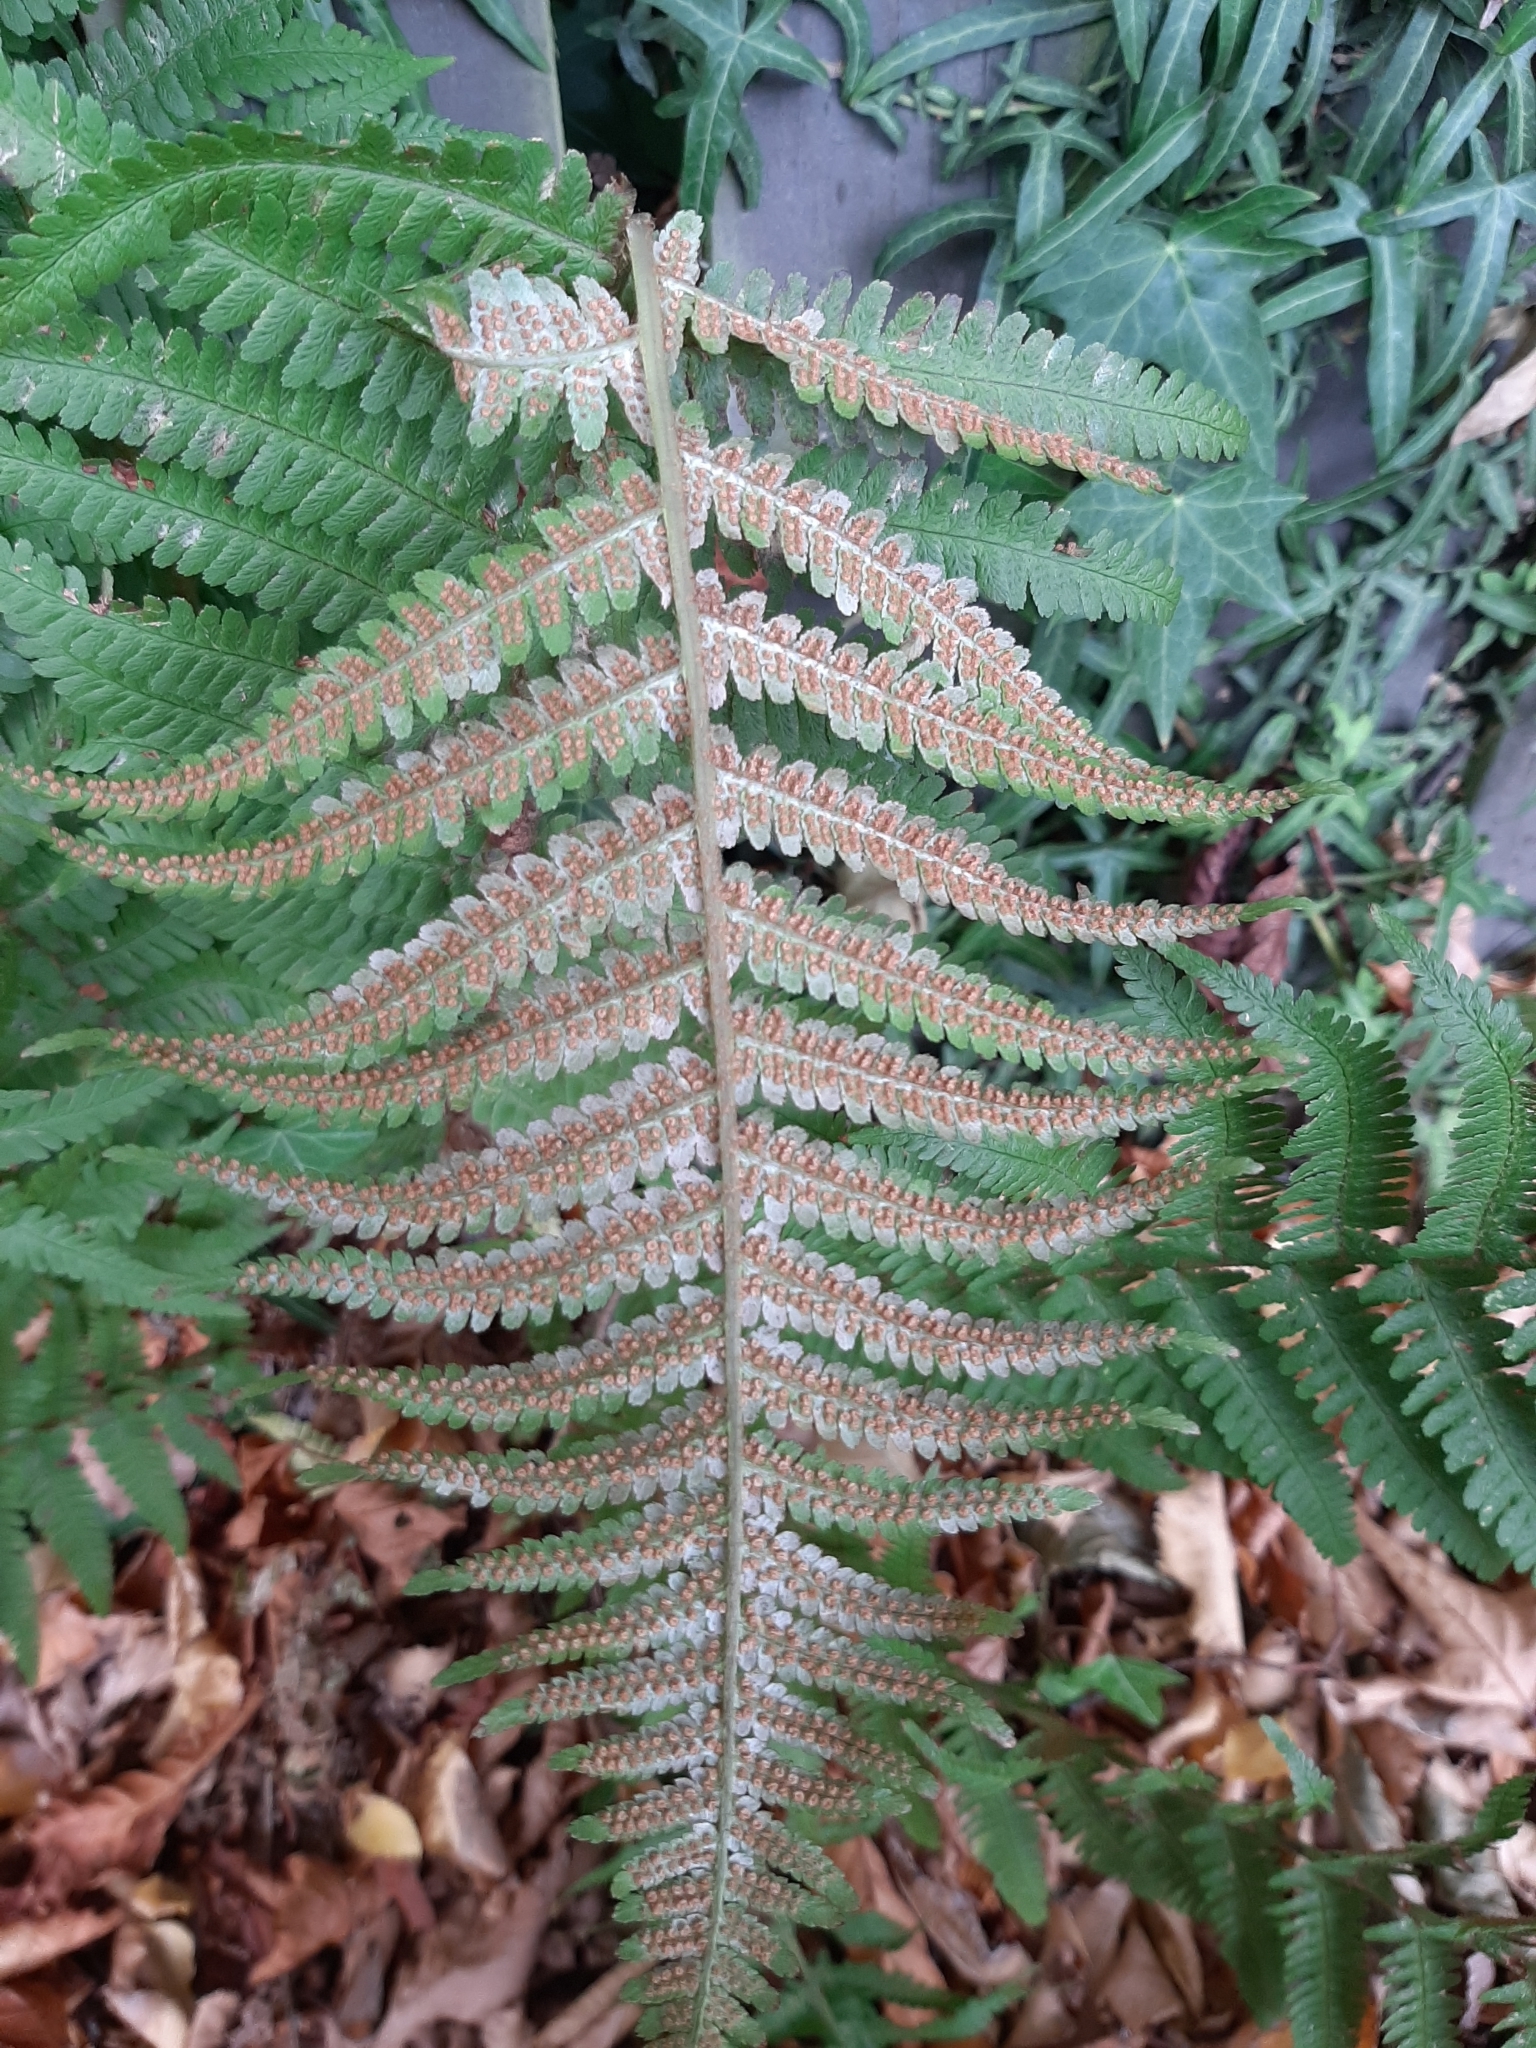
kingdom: Plantae
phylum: Tracheophyta
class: Polypodiopsida
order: Polypodiales
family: Dryopteridaceae
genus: Dryopteris
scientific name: Dryopteris filix-mas
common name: Male fern
